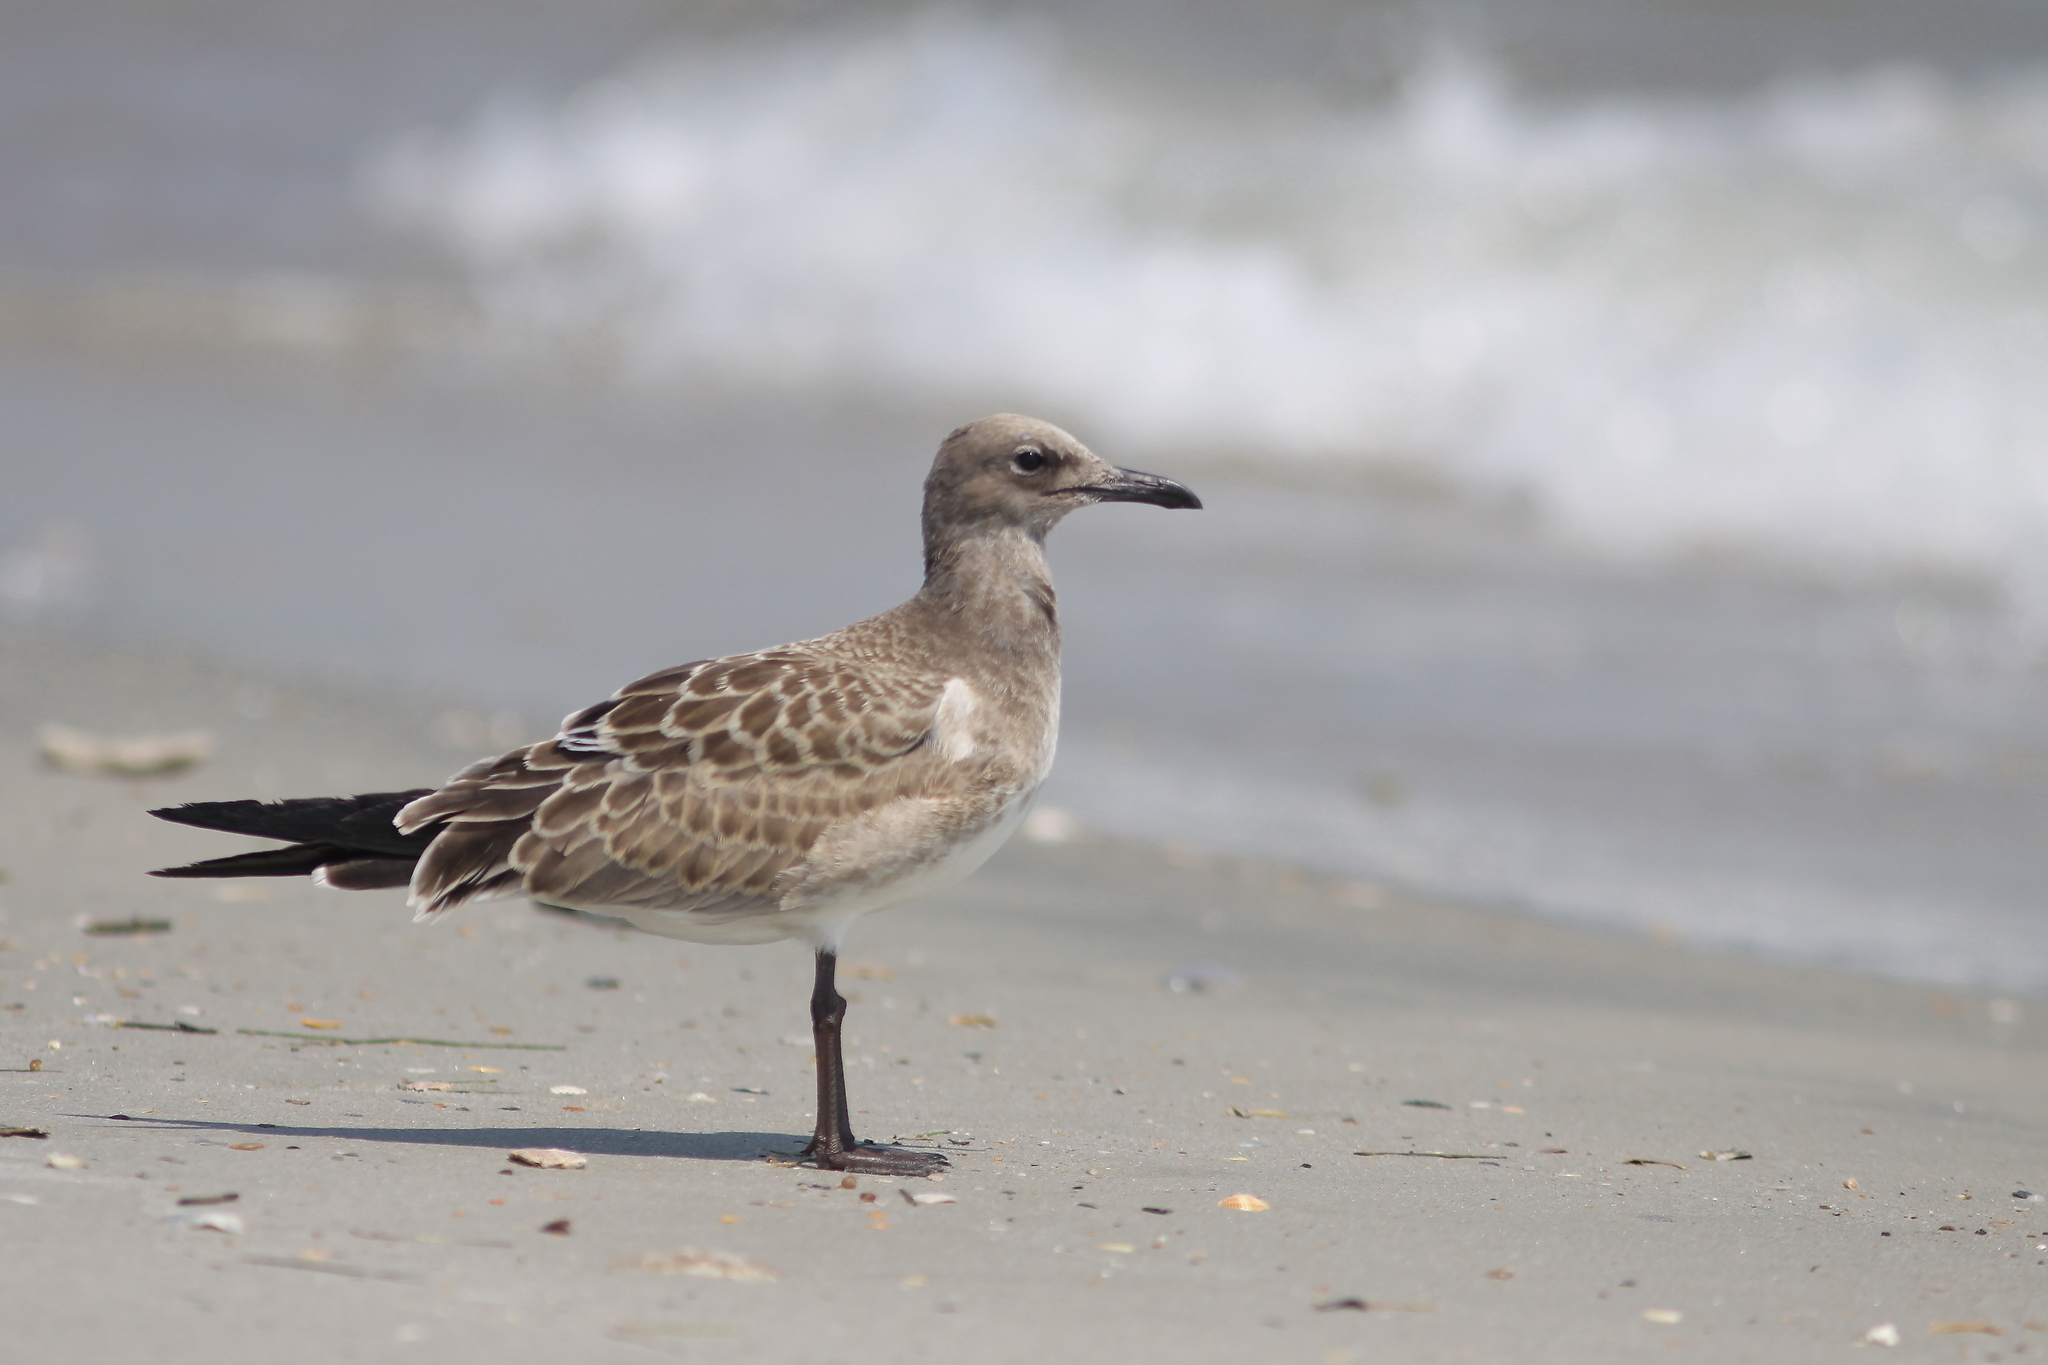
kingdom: Animalia
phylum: Chordata
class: Aves
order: Charadriiformes
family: Laridae
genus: Leucophaeus
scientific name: Leucophaeus atricilla
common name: Laughing gull
